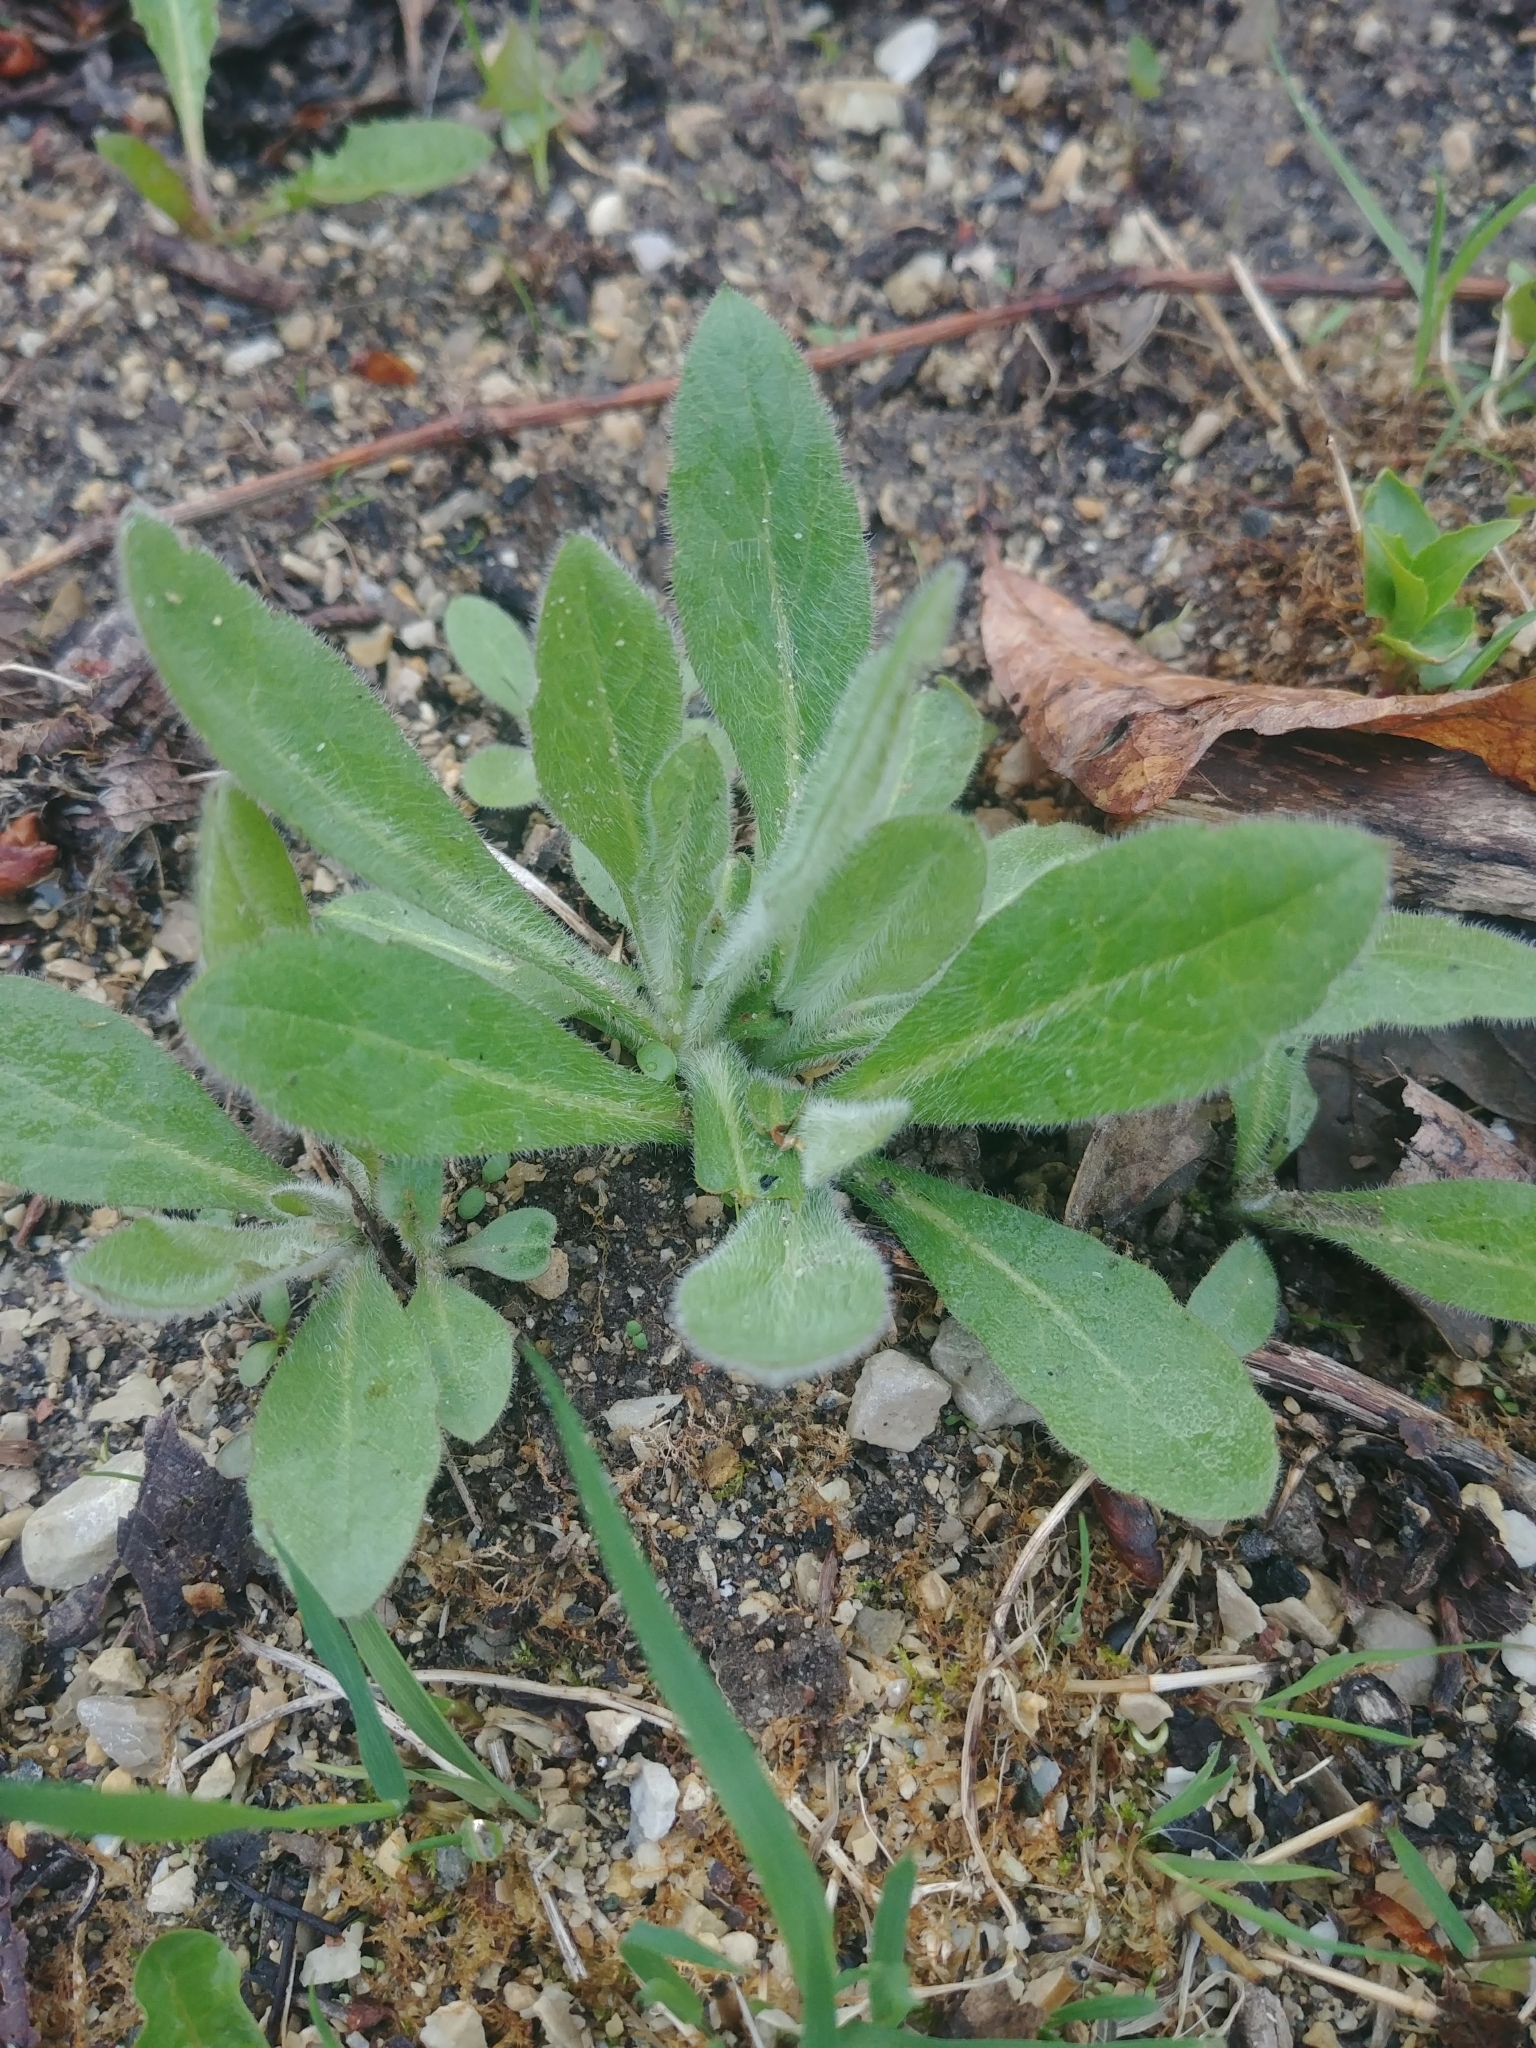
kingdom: Plantae
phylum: Tracheophyta
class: Magnoliopsida
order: Asterales
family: Asteraceae
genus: Rudbeckia
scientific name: Rudbeckia hirta
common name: Black-eyed-susan
